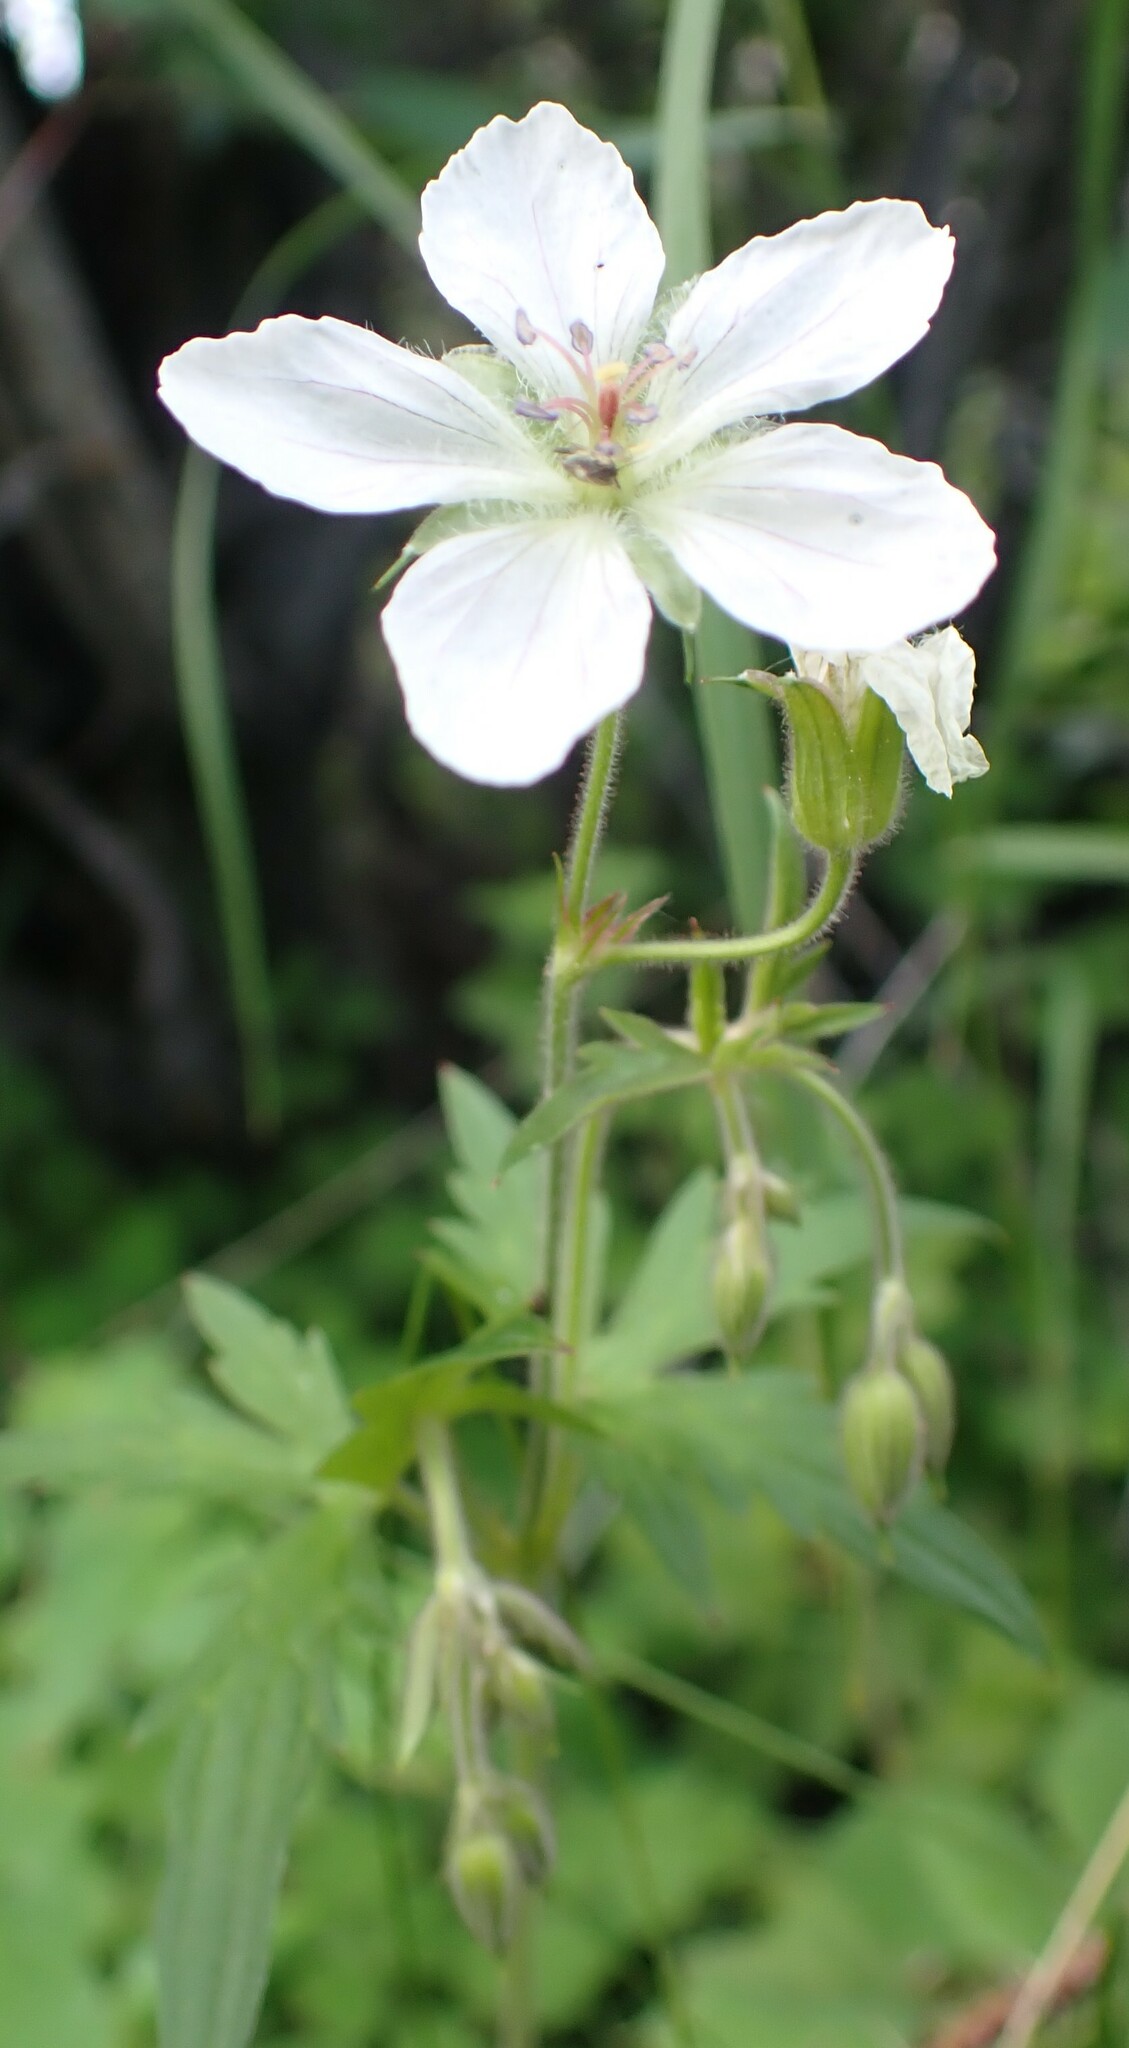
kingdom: Plantae
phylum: Tracheophyta
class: Magnoliopsida
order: Geraniales
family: Geraniaceae
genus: Geranium
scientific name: Geranium richardsonii
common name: Richardson's crane's-bill
